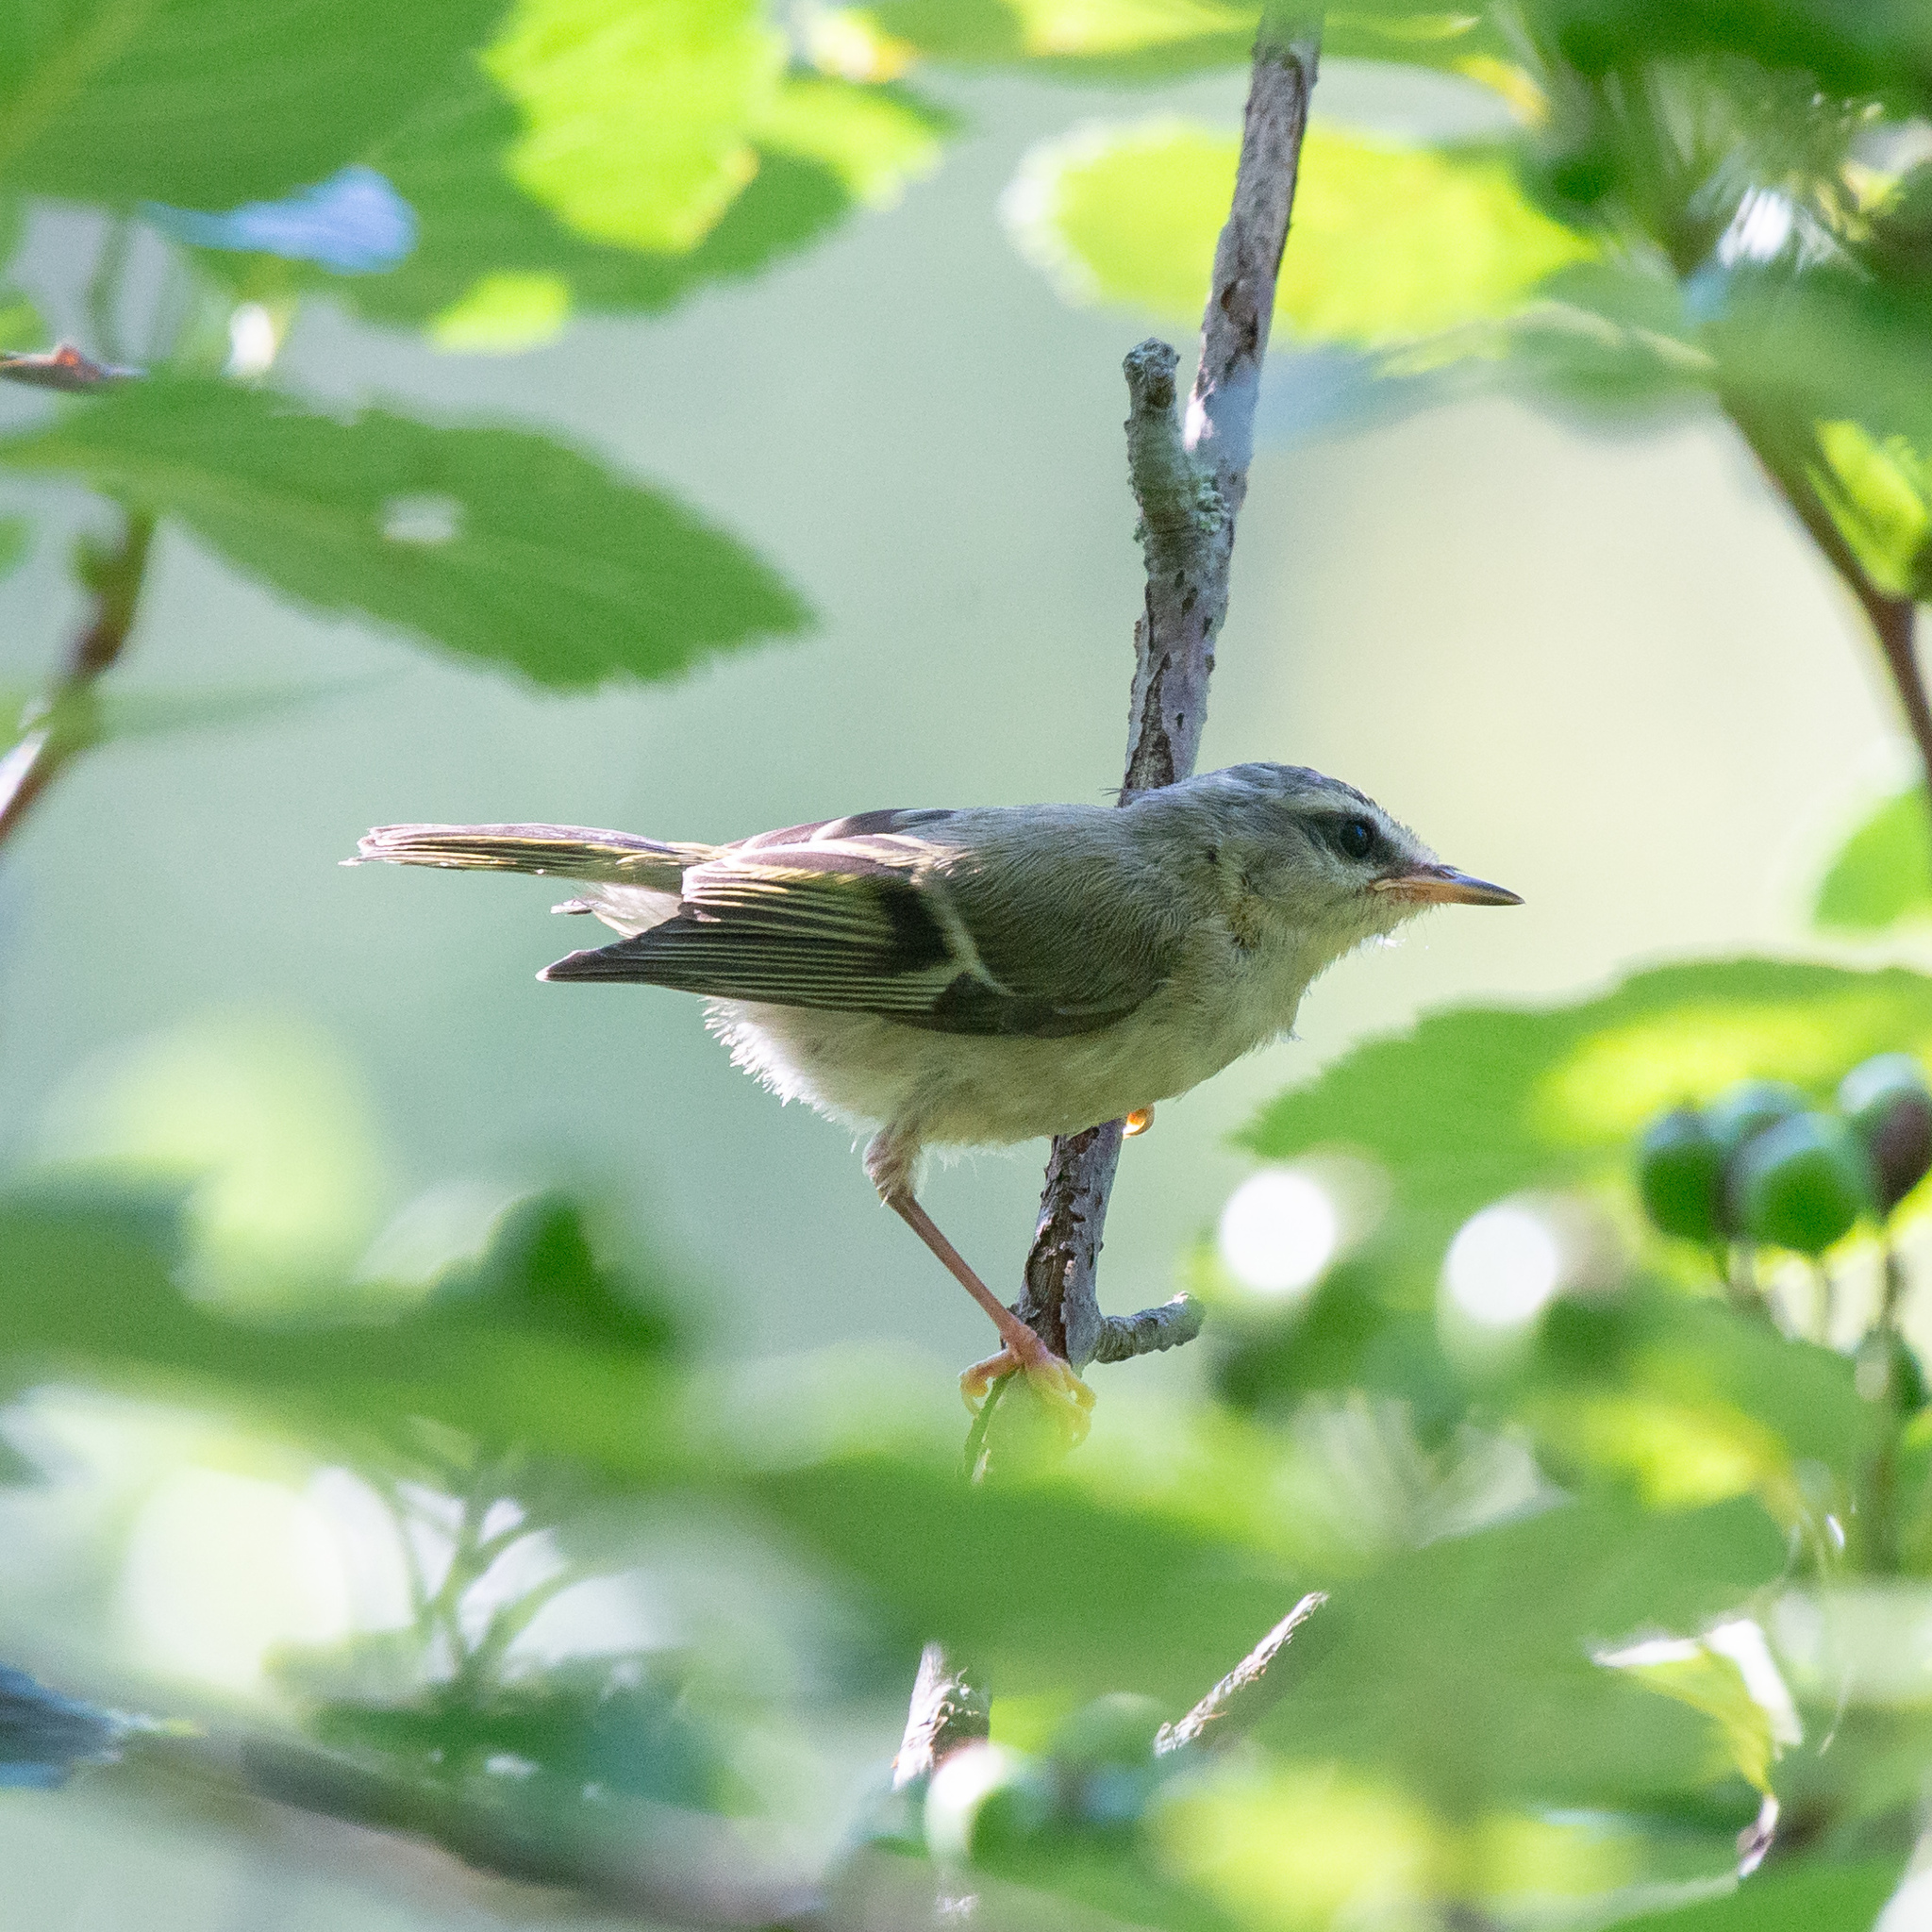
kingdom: Animalia
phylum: Chordata
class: Aves
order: Passeriformes
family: Regulidae
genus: Regulus
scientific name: Regulus ignicapilla
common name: Firecrest
